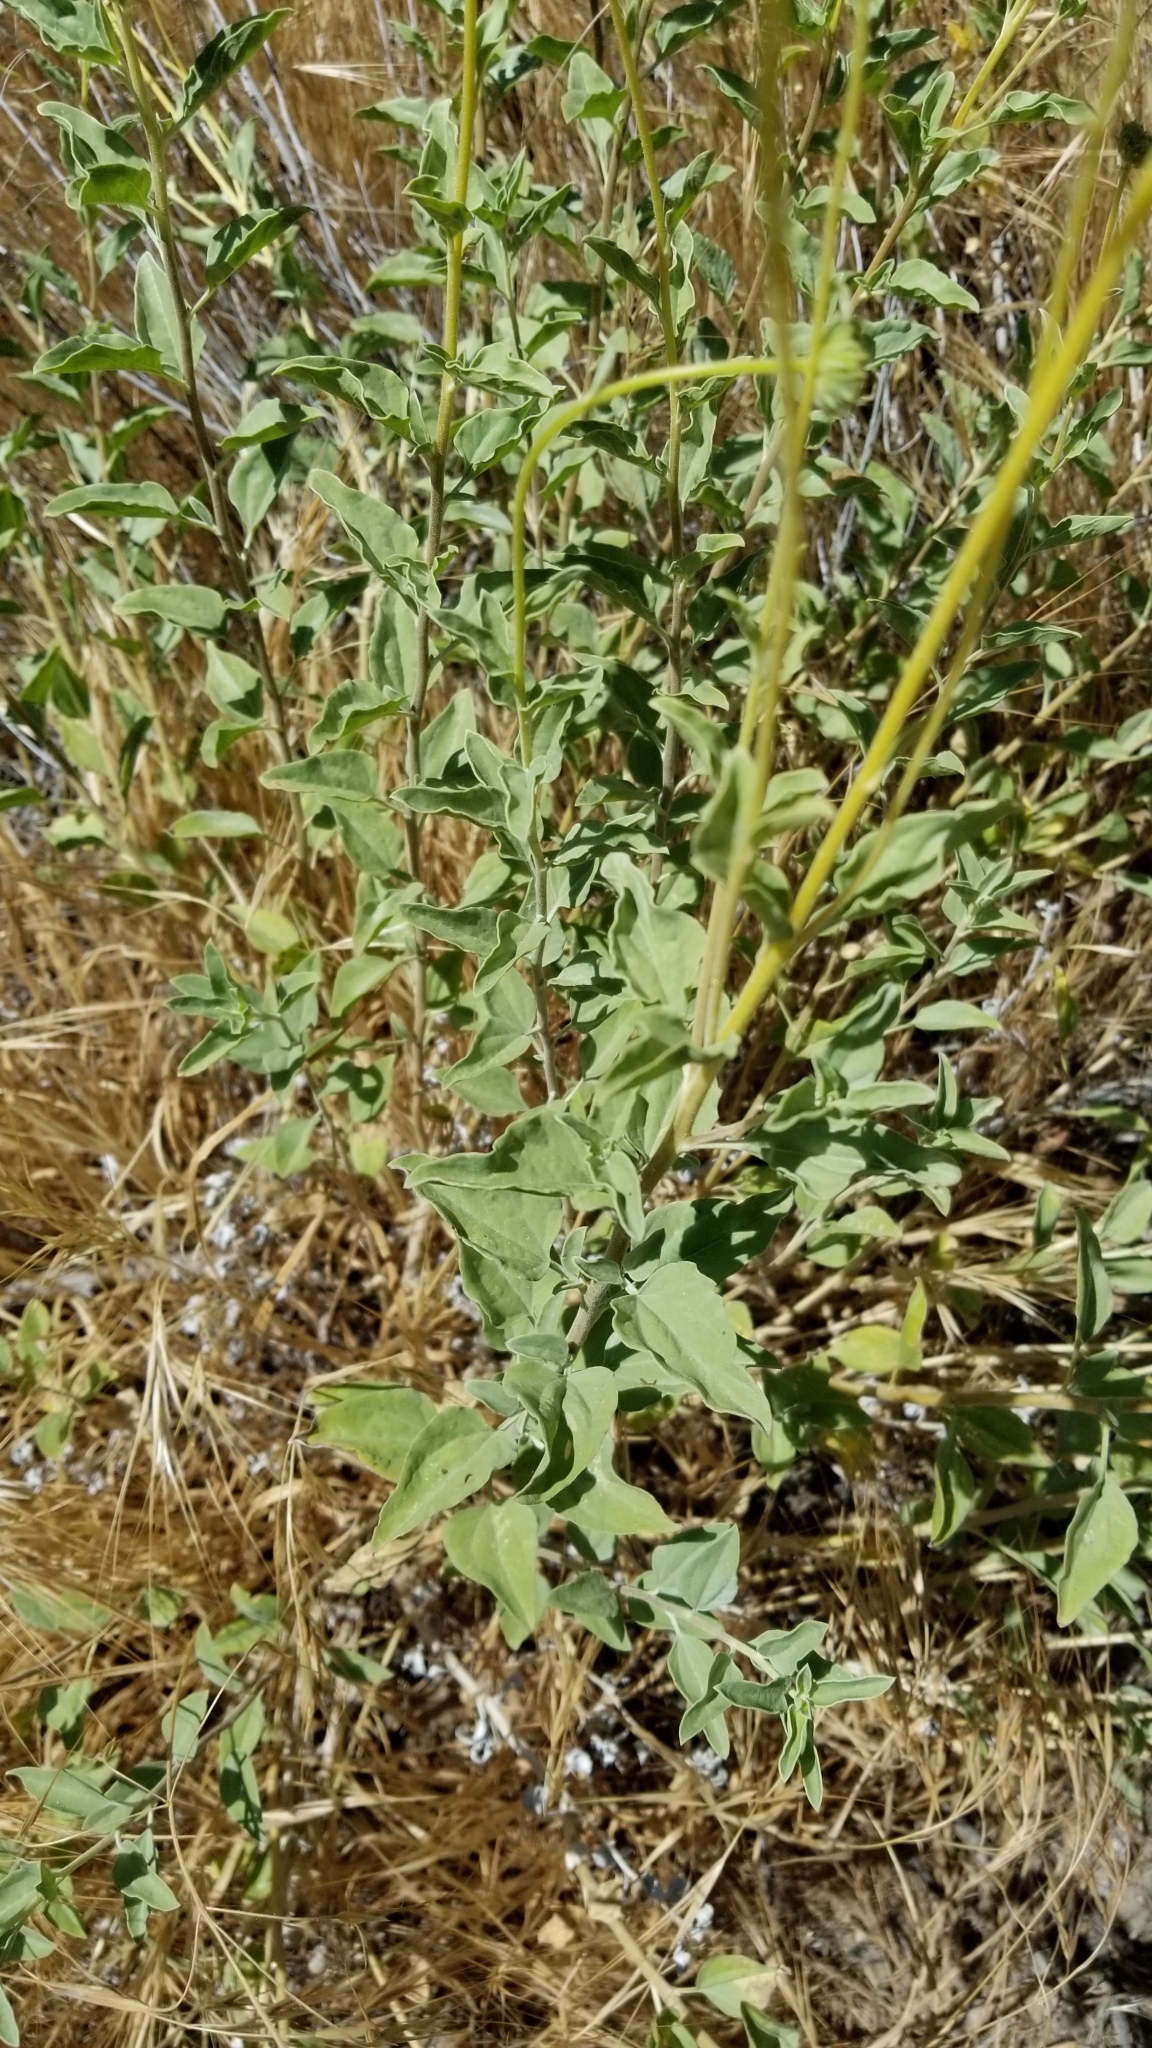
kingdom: Plantae
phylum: Tracheophyta
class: Magnoliopsida
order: Asterales
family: Asteraceae
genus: Encelia
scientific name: Encelia actoni
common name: Acton encelia
